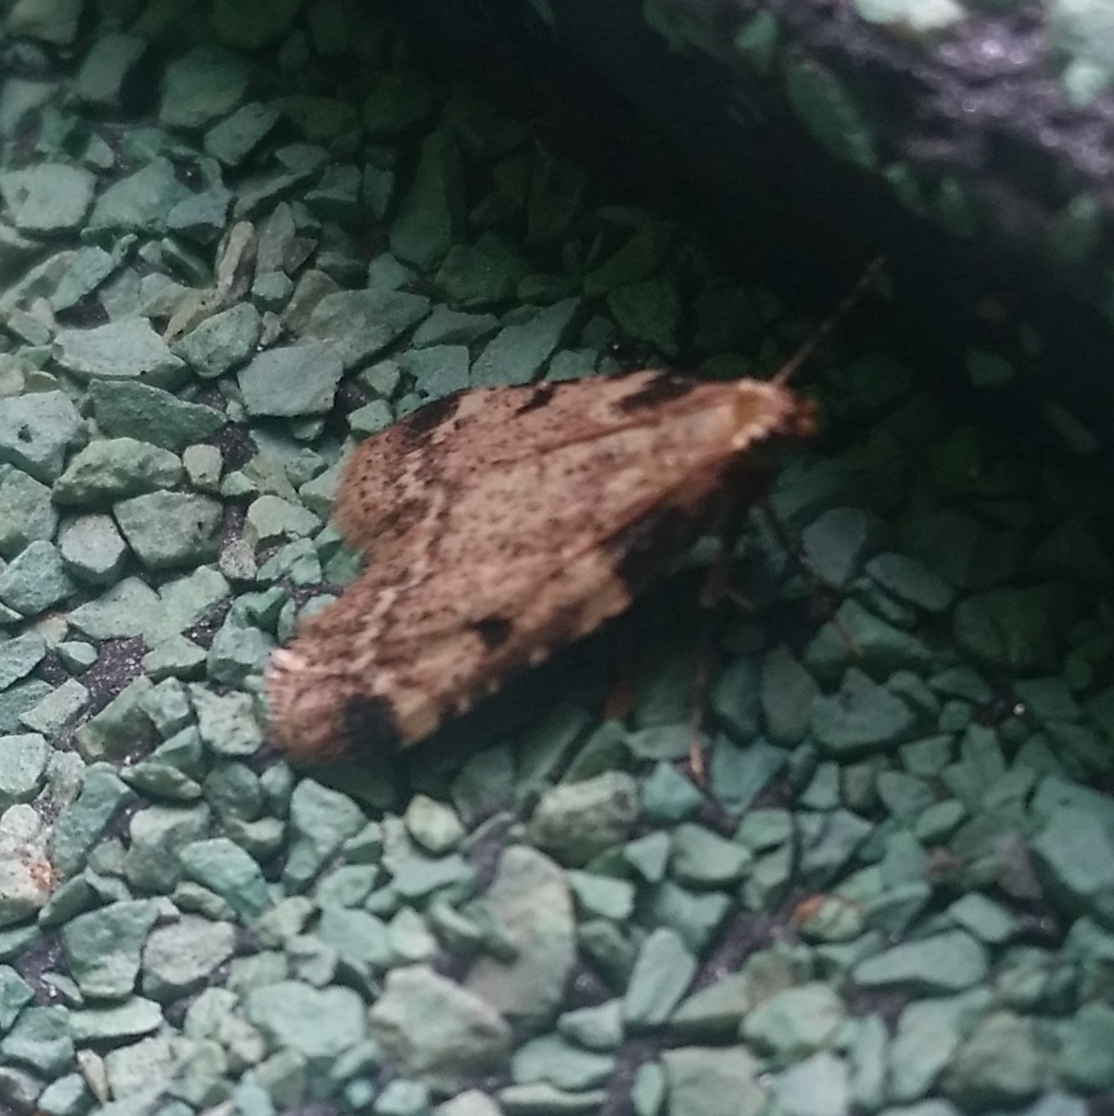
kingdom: Animalia
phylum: Arthropoda
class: Insecta
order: Lepidoptera
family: Pyralidae
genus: Aglossa
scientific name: Aglossa disciferalis
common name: Pink-masked pyralid moth
